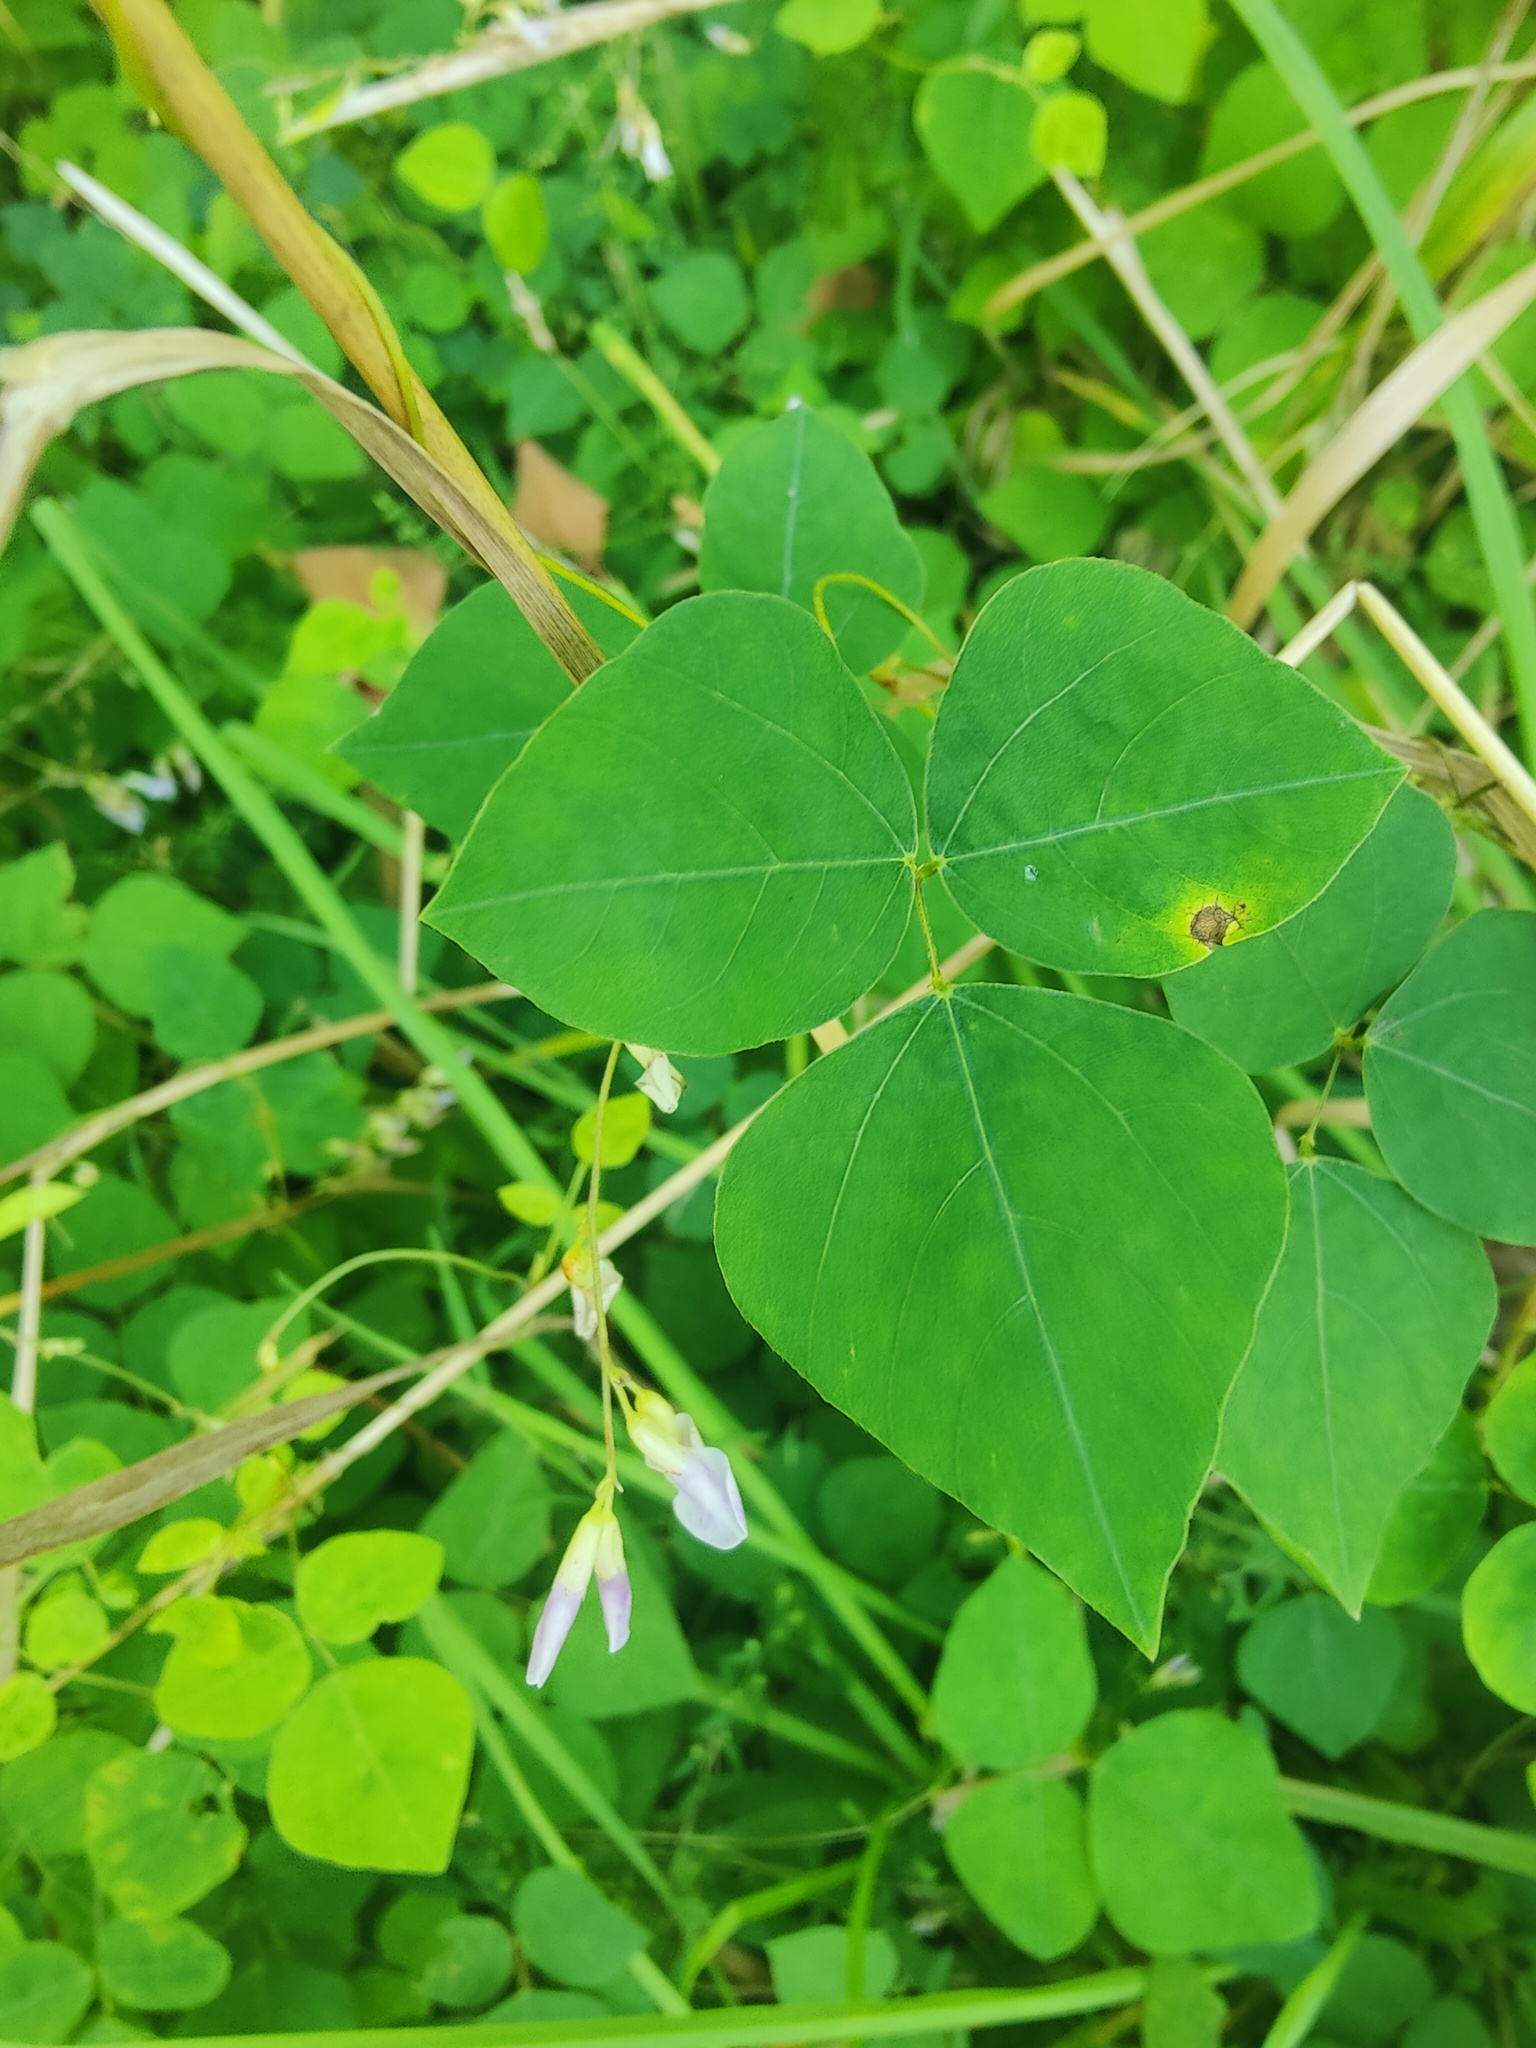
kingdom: Plantae
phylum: Tracheophyta
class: Magnoliopsida
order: Fabales
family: Fabaceae
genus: Amphicarpaea
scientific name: Amphicarpaea bracteata
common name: American hog peanut
